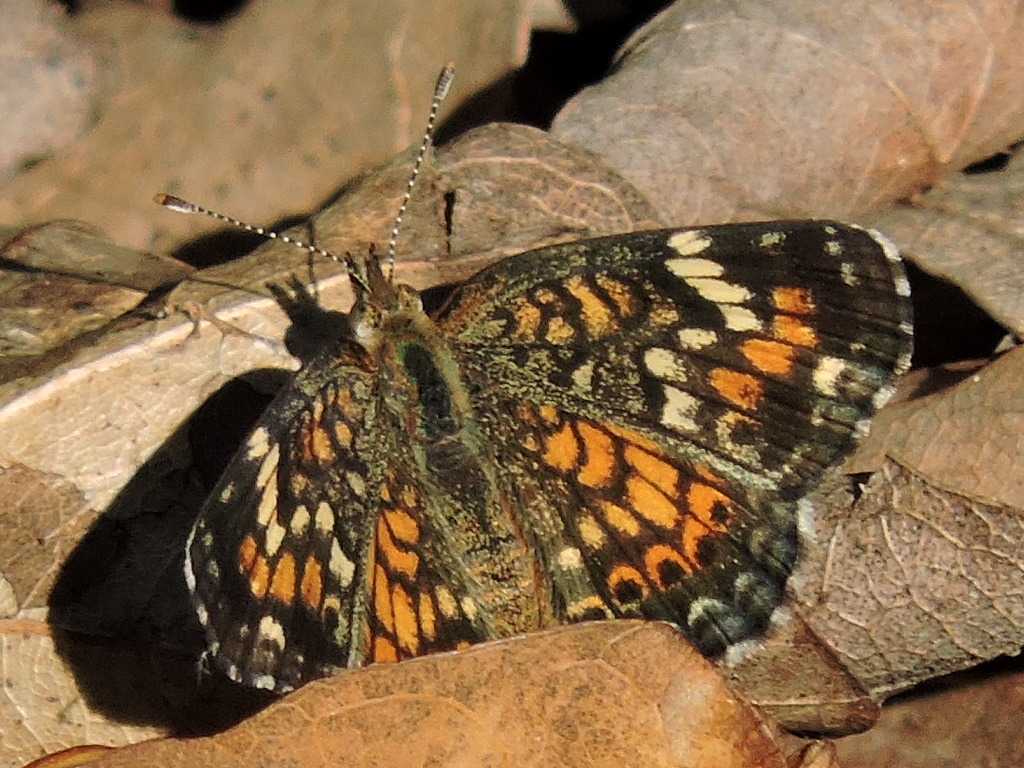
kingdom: Animalia
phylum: Arthropoda
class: Insecta
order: Lepidoptera
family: Nymphalidae
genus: Phyciodes
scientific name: Phyciodes phaon
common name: Phaon crescent
